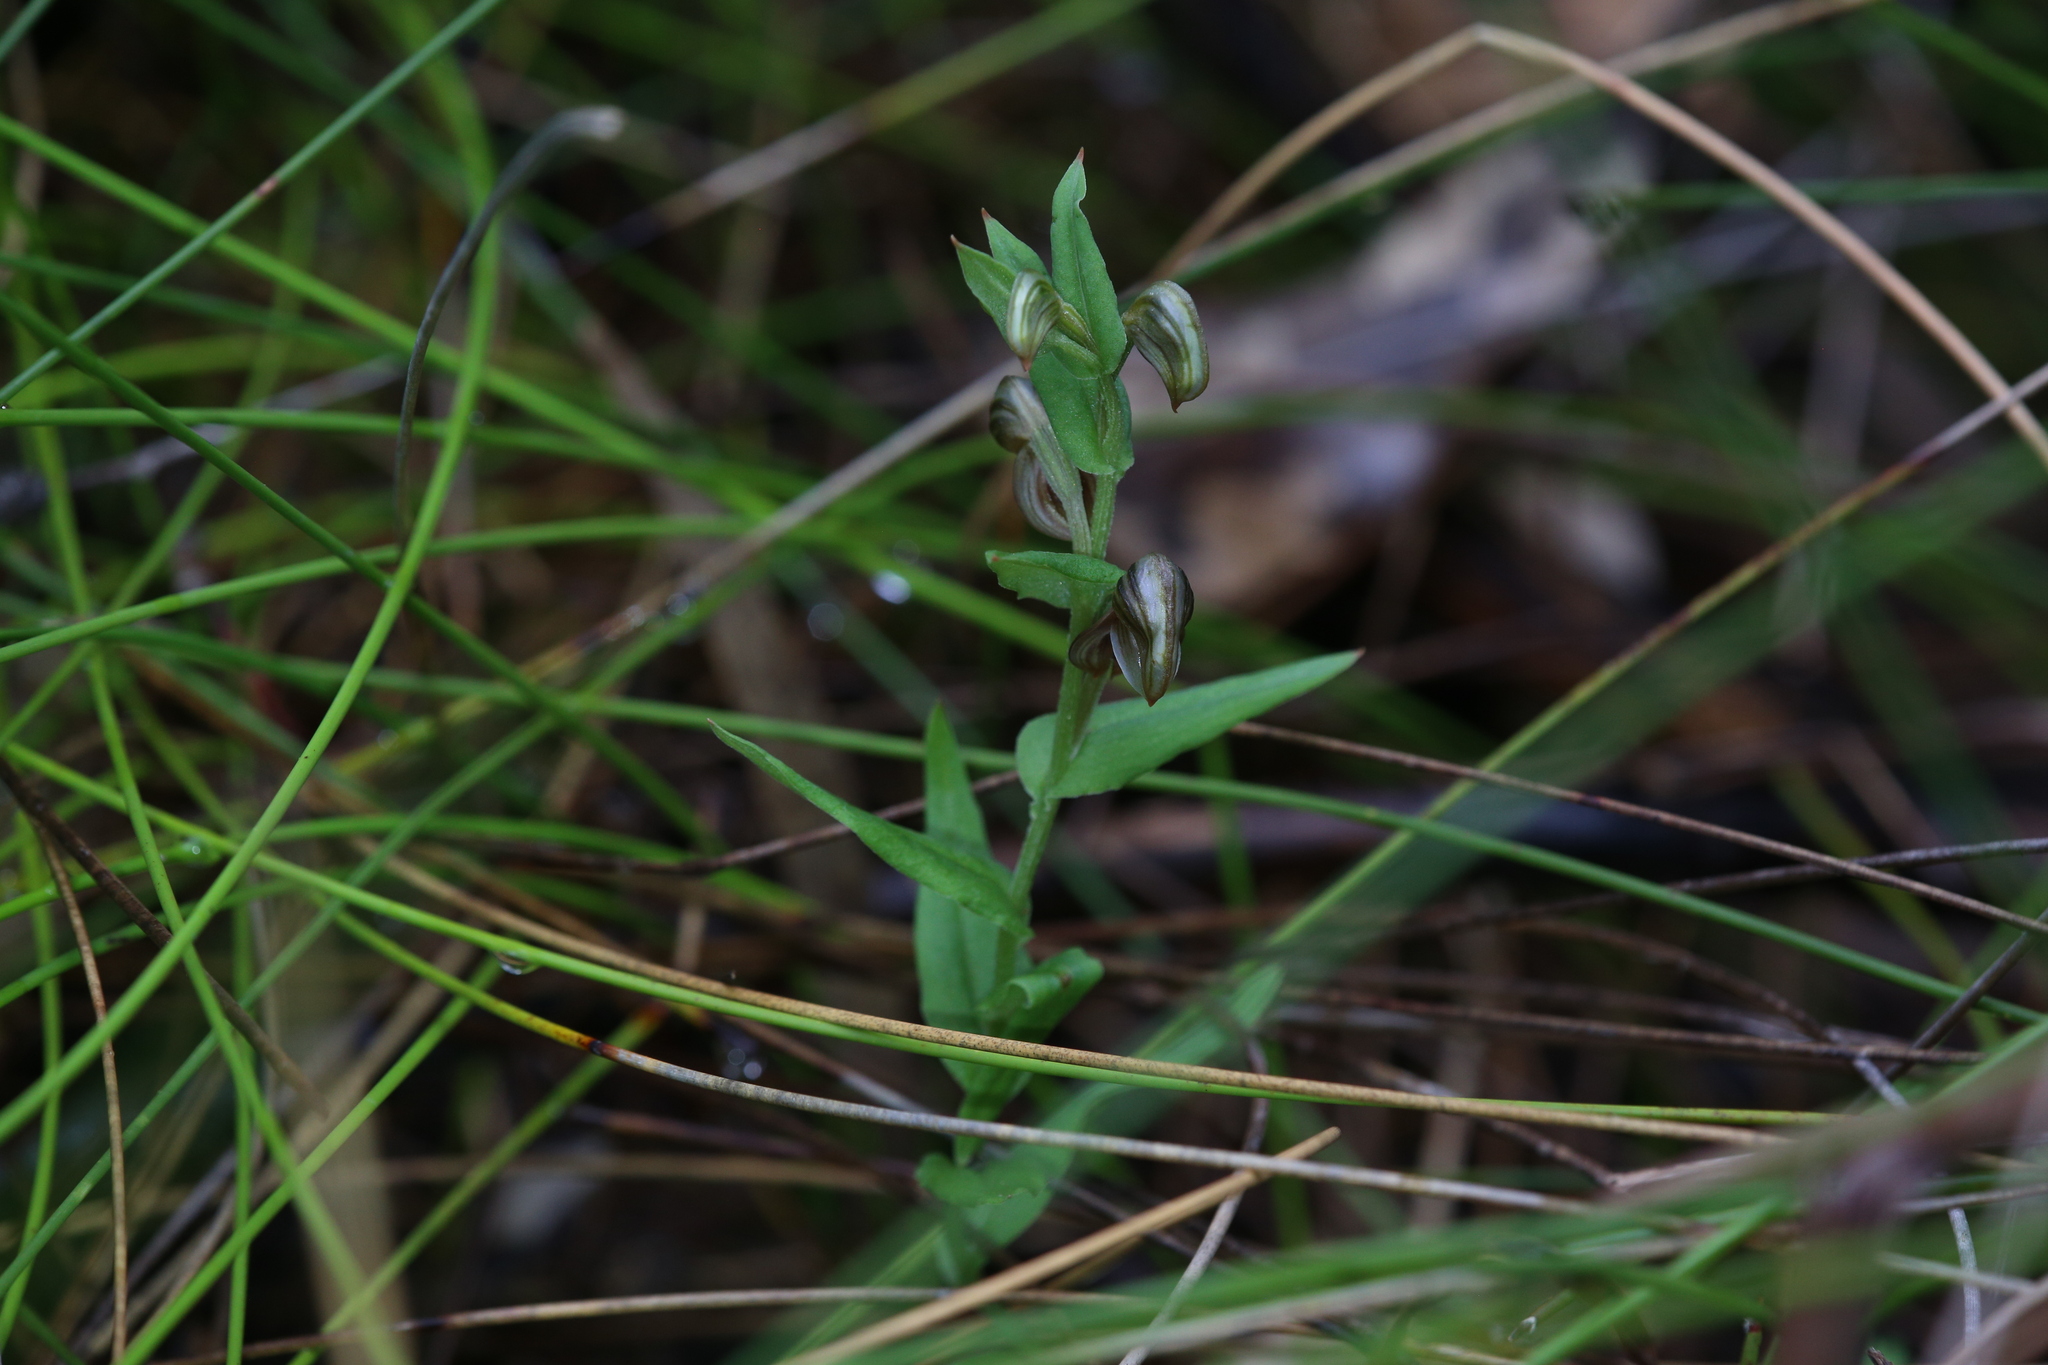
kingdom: Plantae
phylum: Tracheophyta
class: Liliopsida
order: Asparagales
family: Orchidaceae
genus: Pterostylis
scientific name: Pterostylis orbiculata
